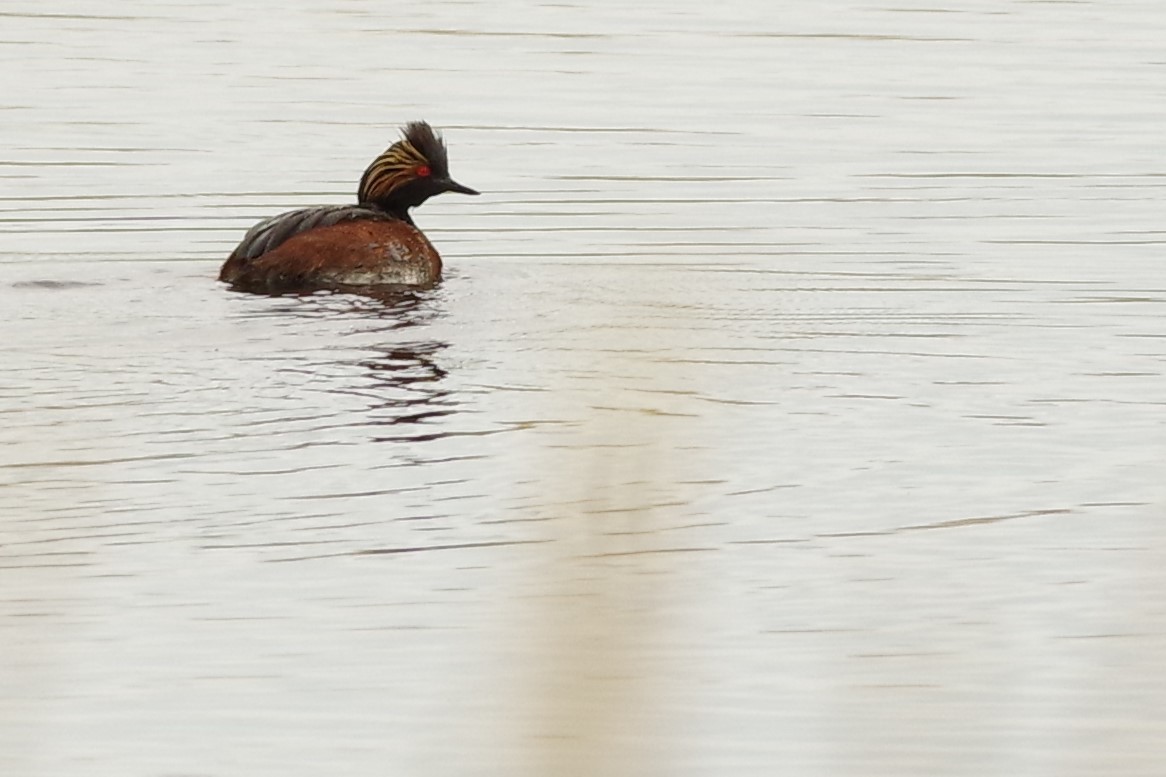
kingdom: Animalia
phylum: Chordata
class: Aves
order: Podicipediformes
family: Podicipedidae
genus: Podiceps
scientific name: Podiceps nigricollis
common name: Black-necked grebe
